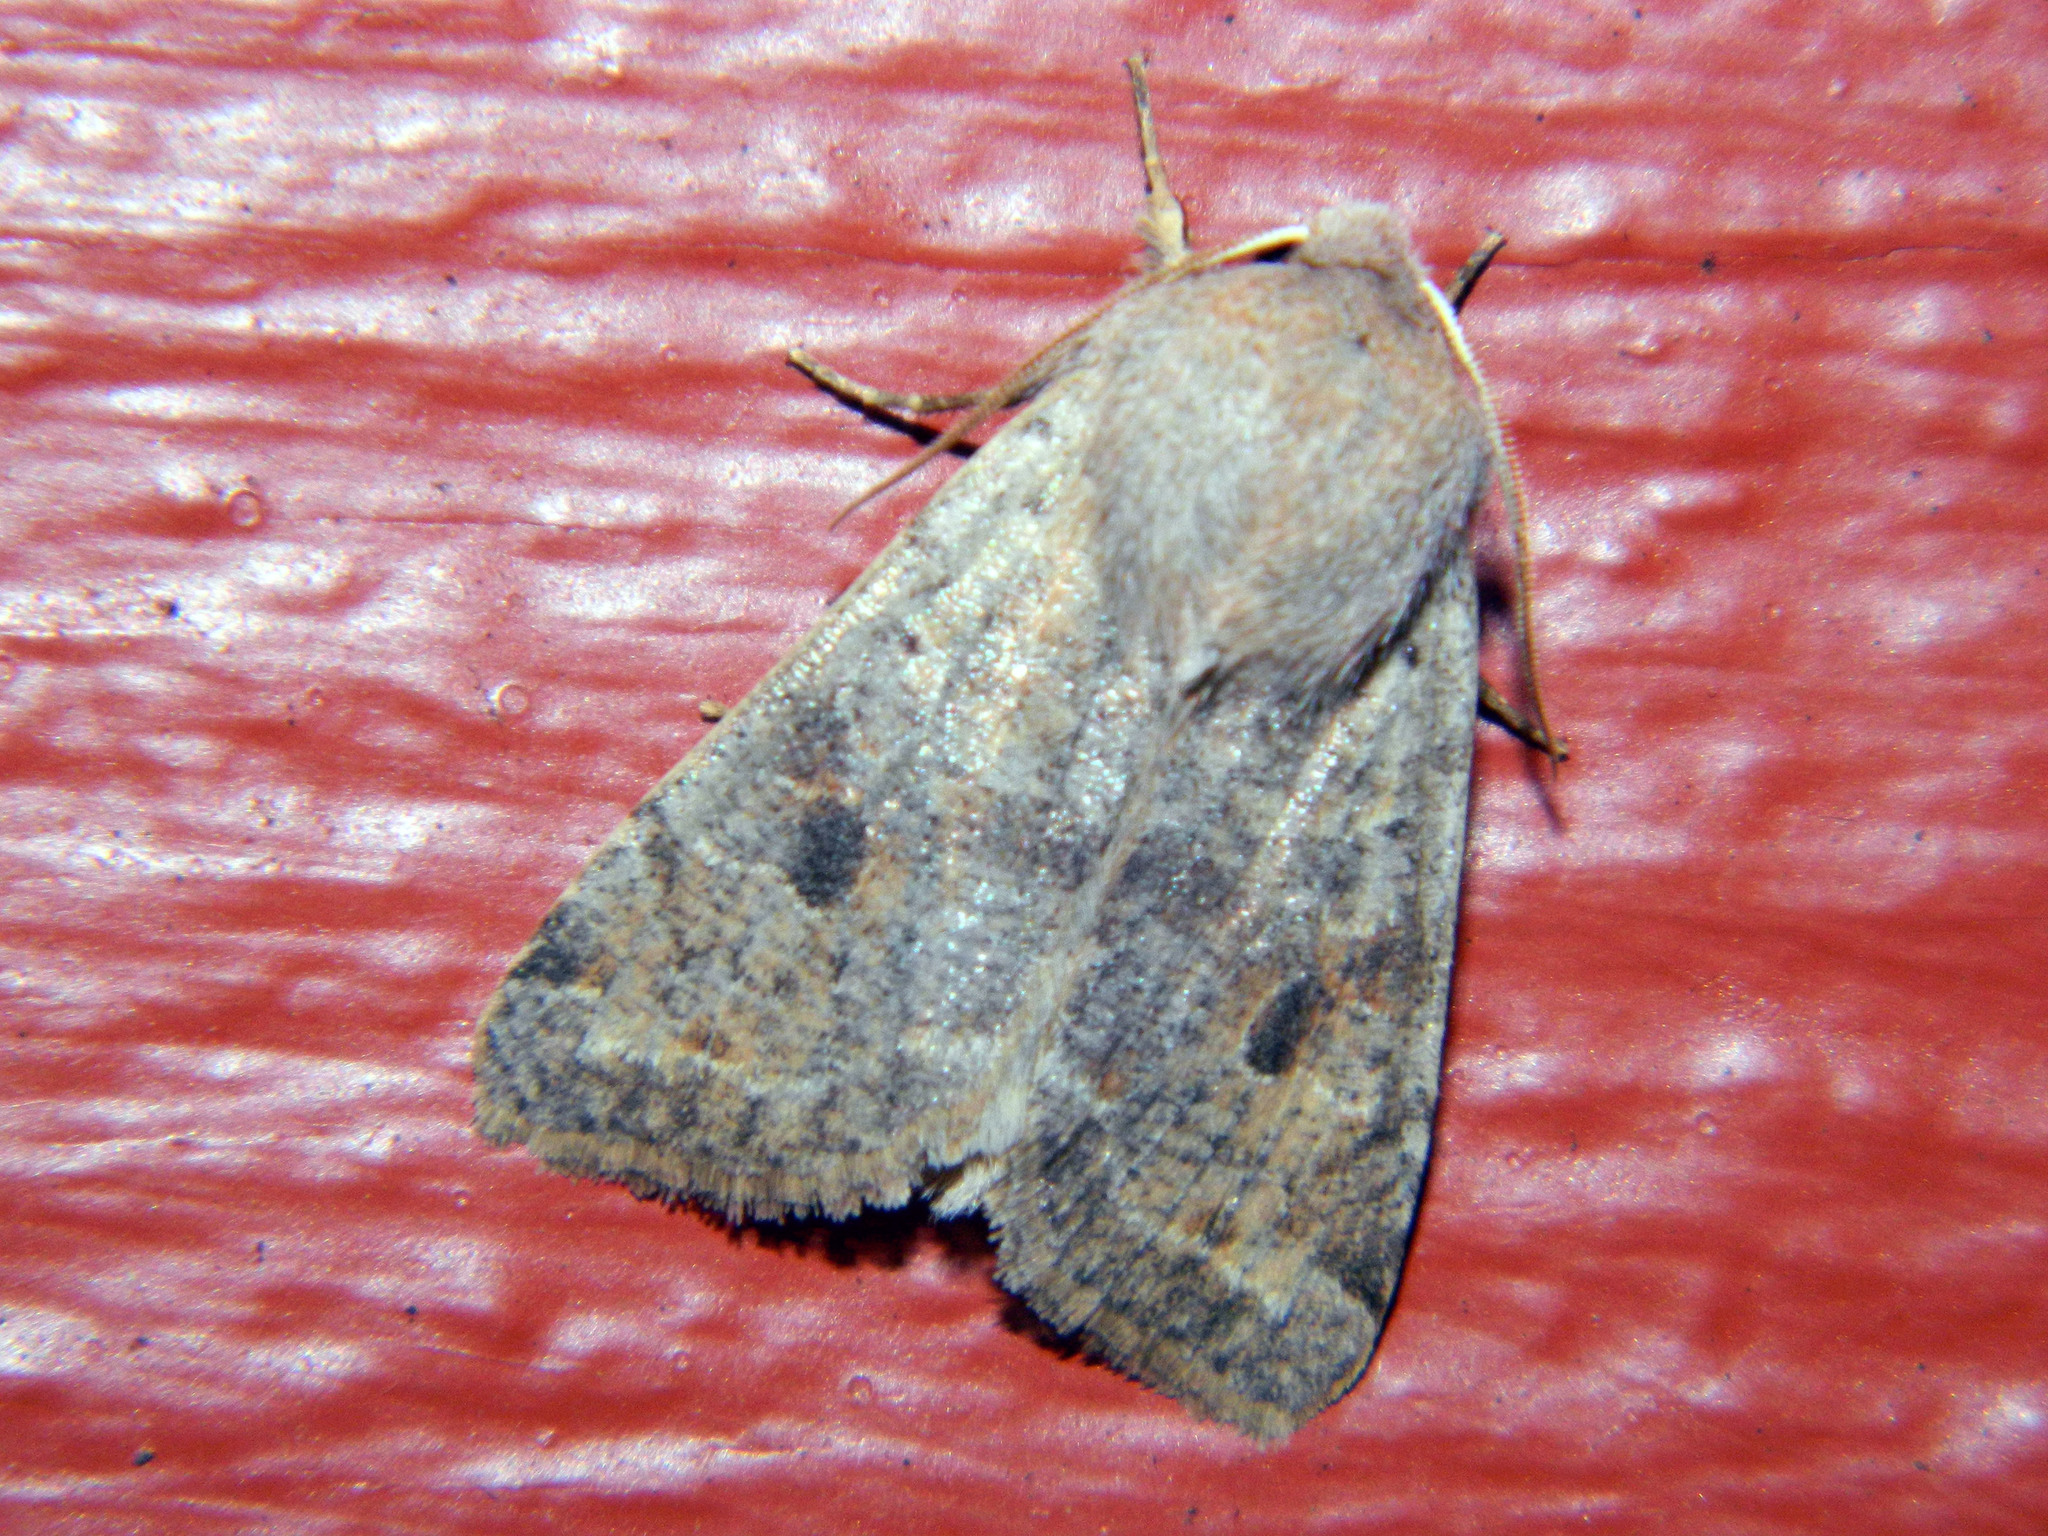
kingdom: Animalia
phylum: Arthropoda
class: Insecta
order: Lepidoptera
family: Noctuidae
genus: Orthosia
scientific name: Orthosia hibisci
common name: Green fruitworm
